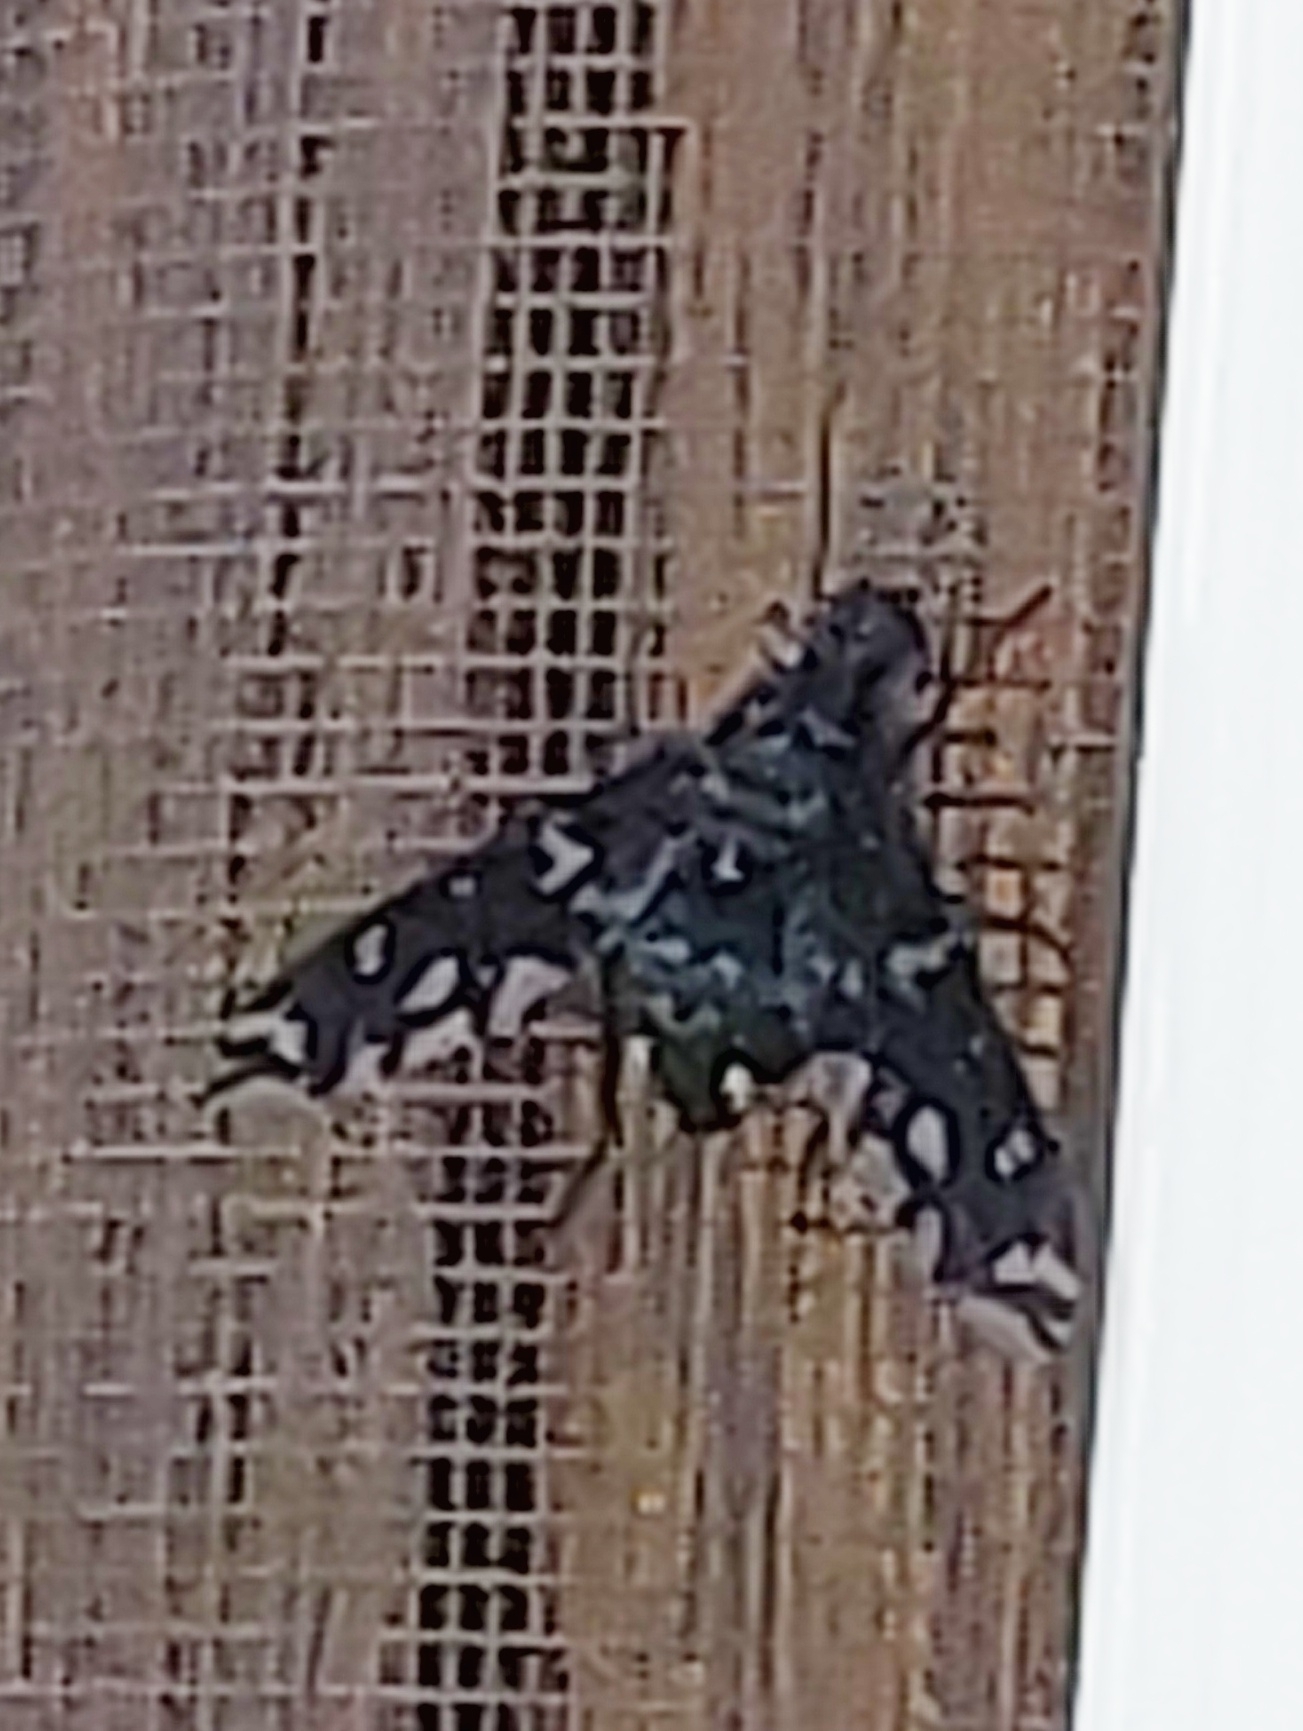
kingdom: Animalia
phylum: Arthropoda
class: Insecta
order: Diptera
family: Bombyliidae
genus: Xenox
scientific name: Xenox tigrinus
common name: Tiger bee fly
